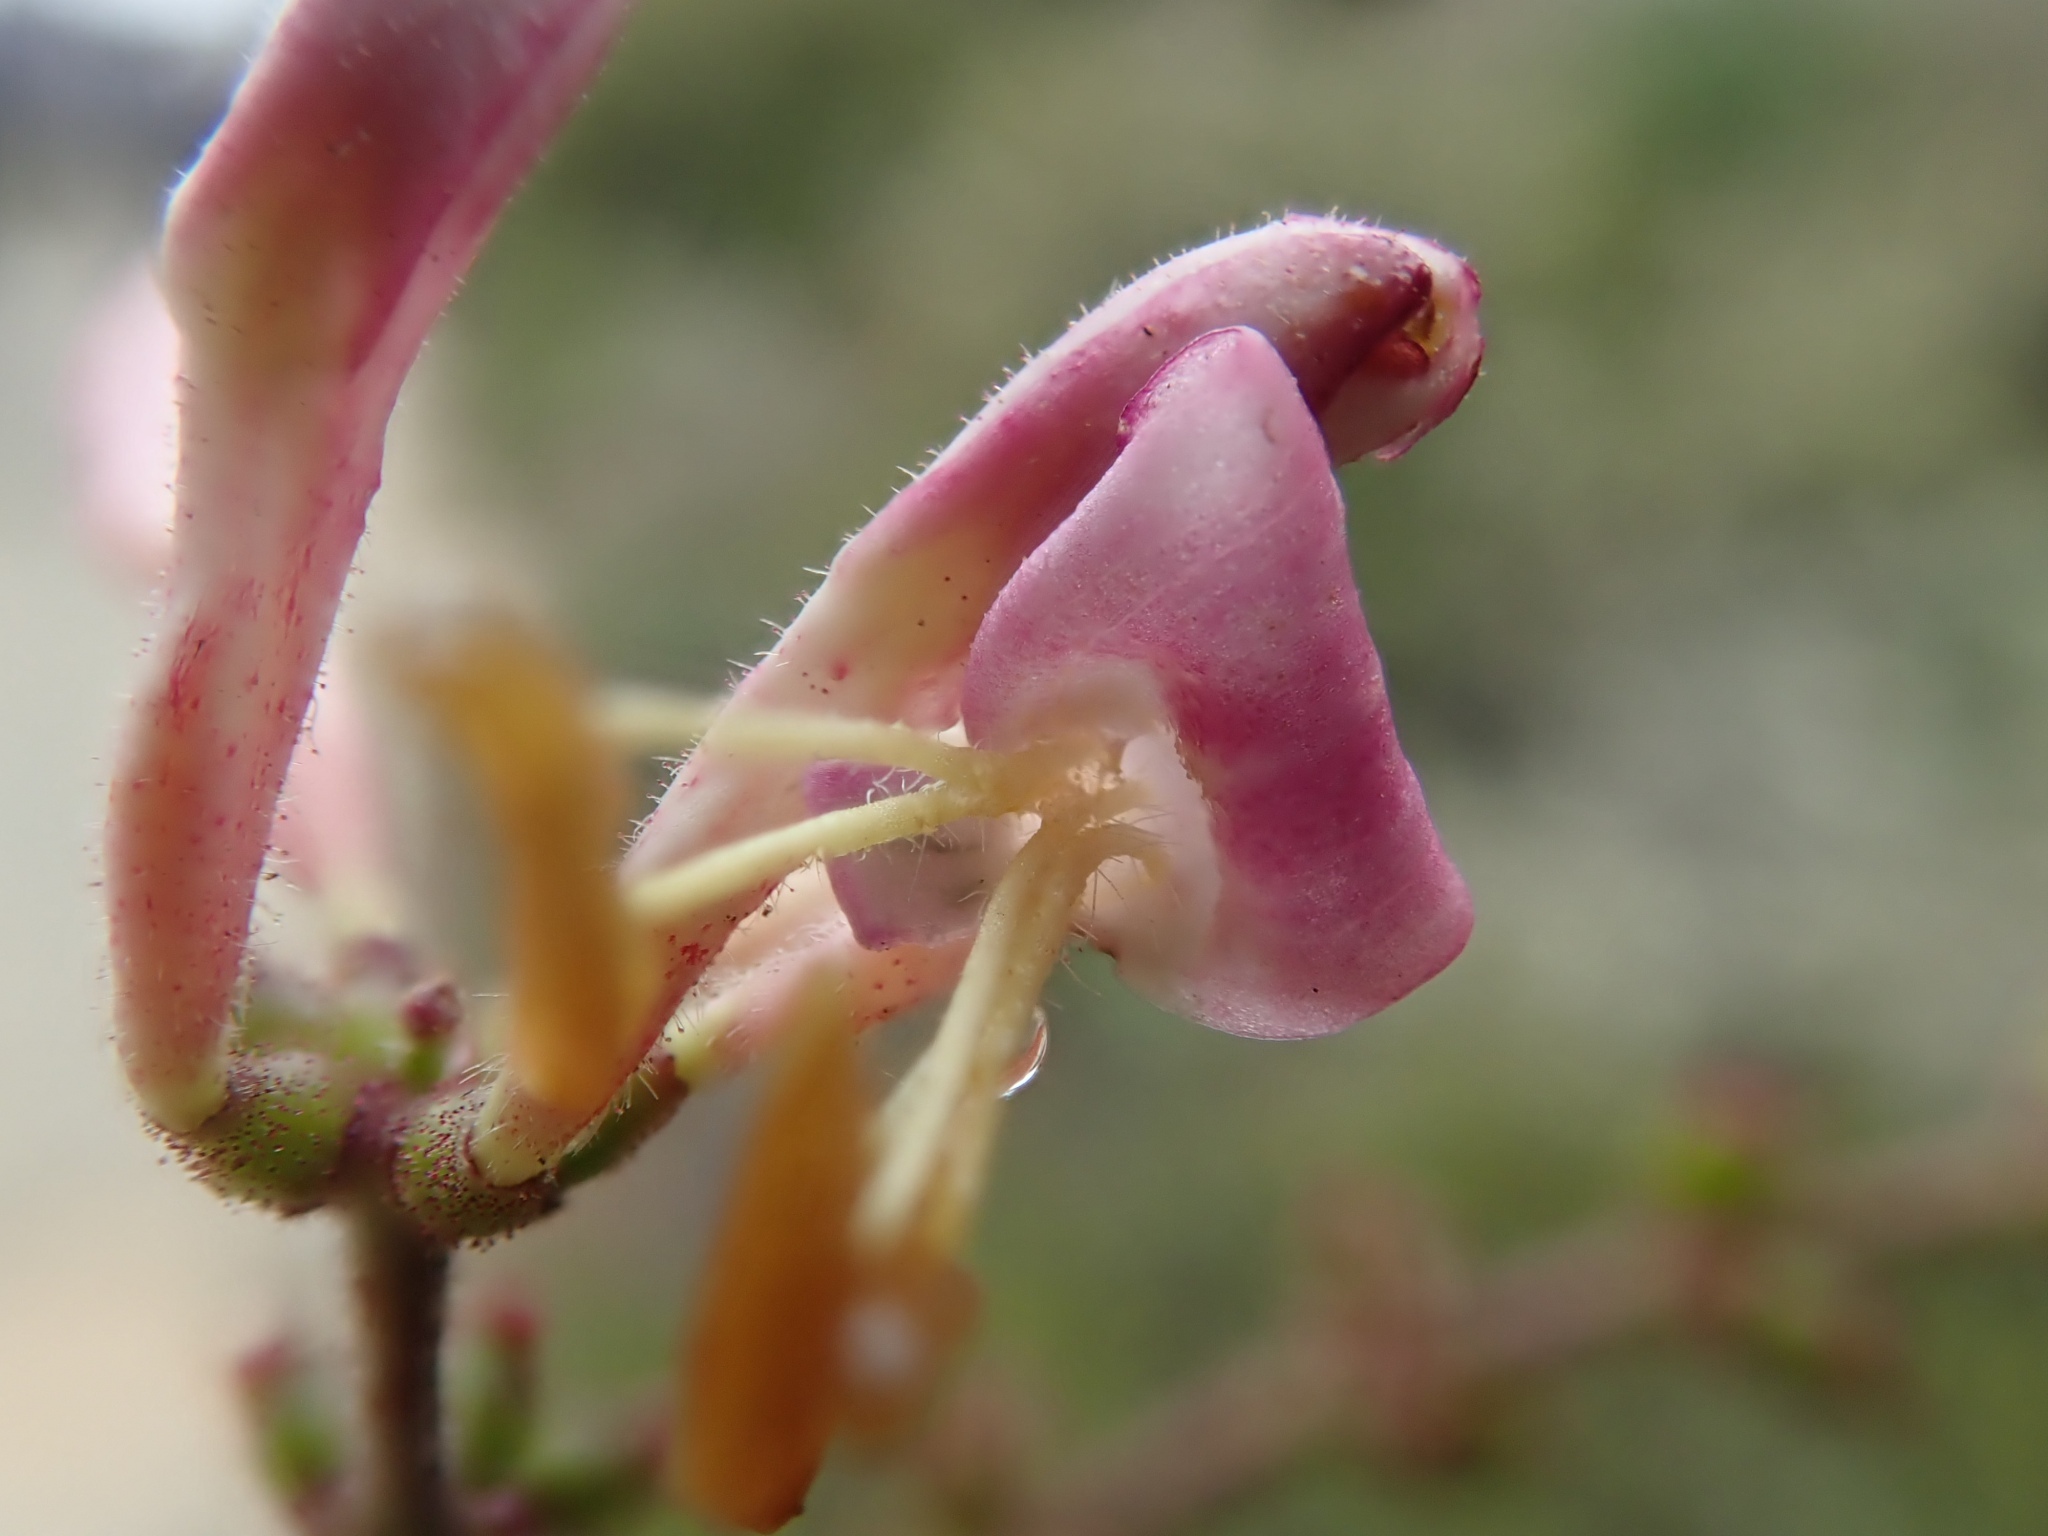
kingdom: Plantae
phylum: Tracheophyta
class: Magnoliopsida
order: Dipsacales
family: Caprifoliaceae
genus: Lonicera
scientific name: Lonicera hispidula
